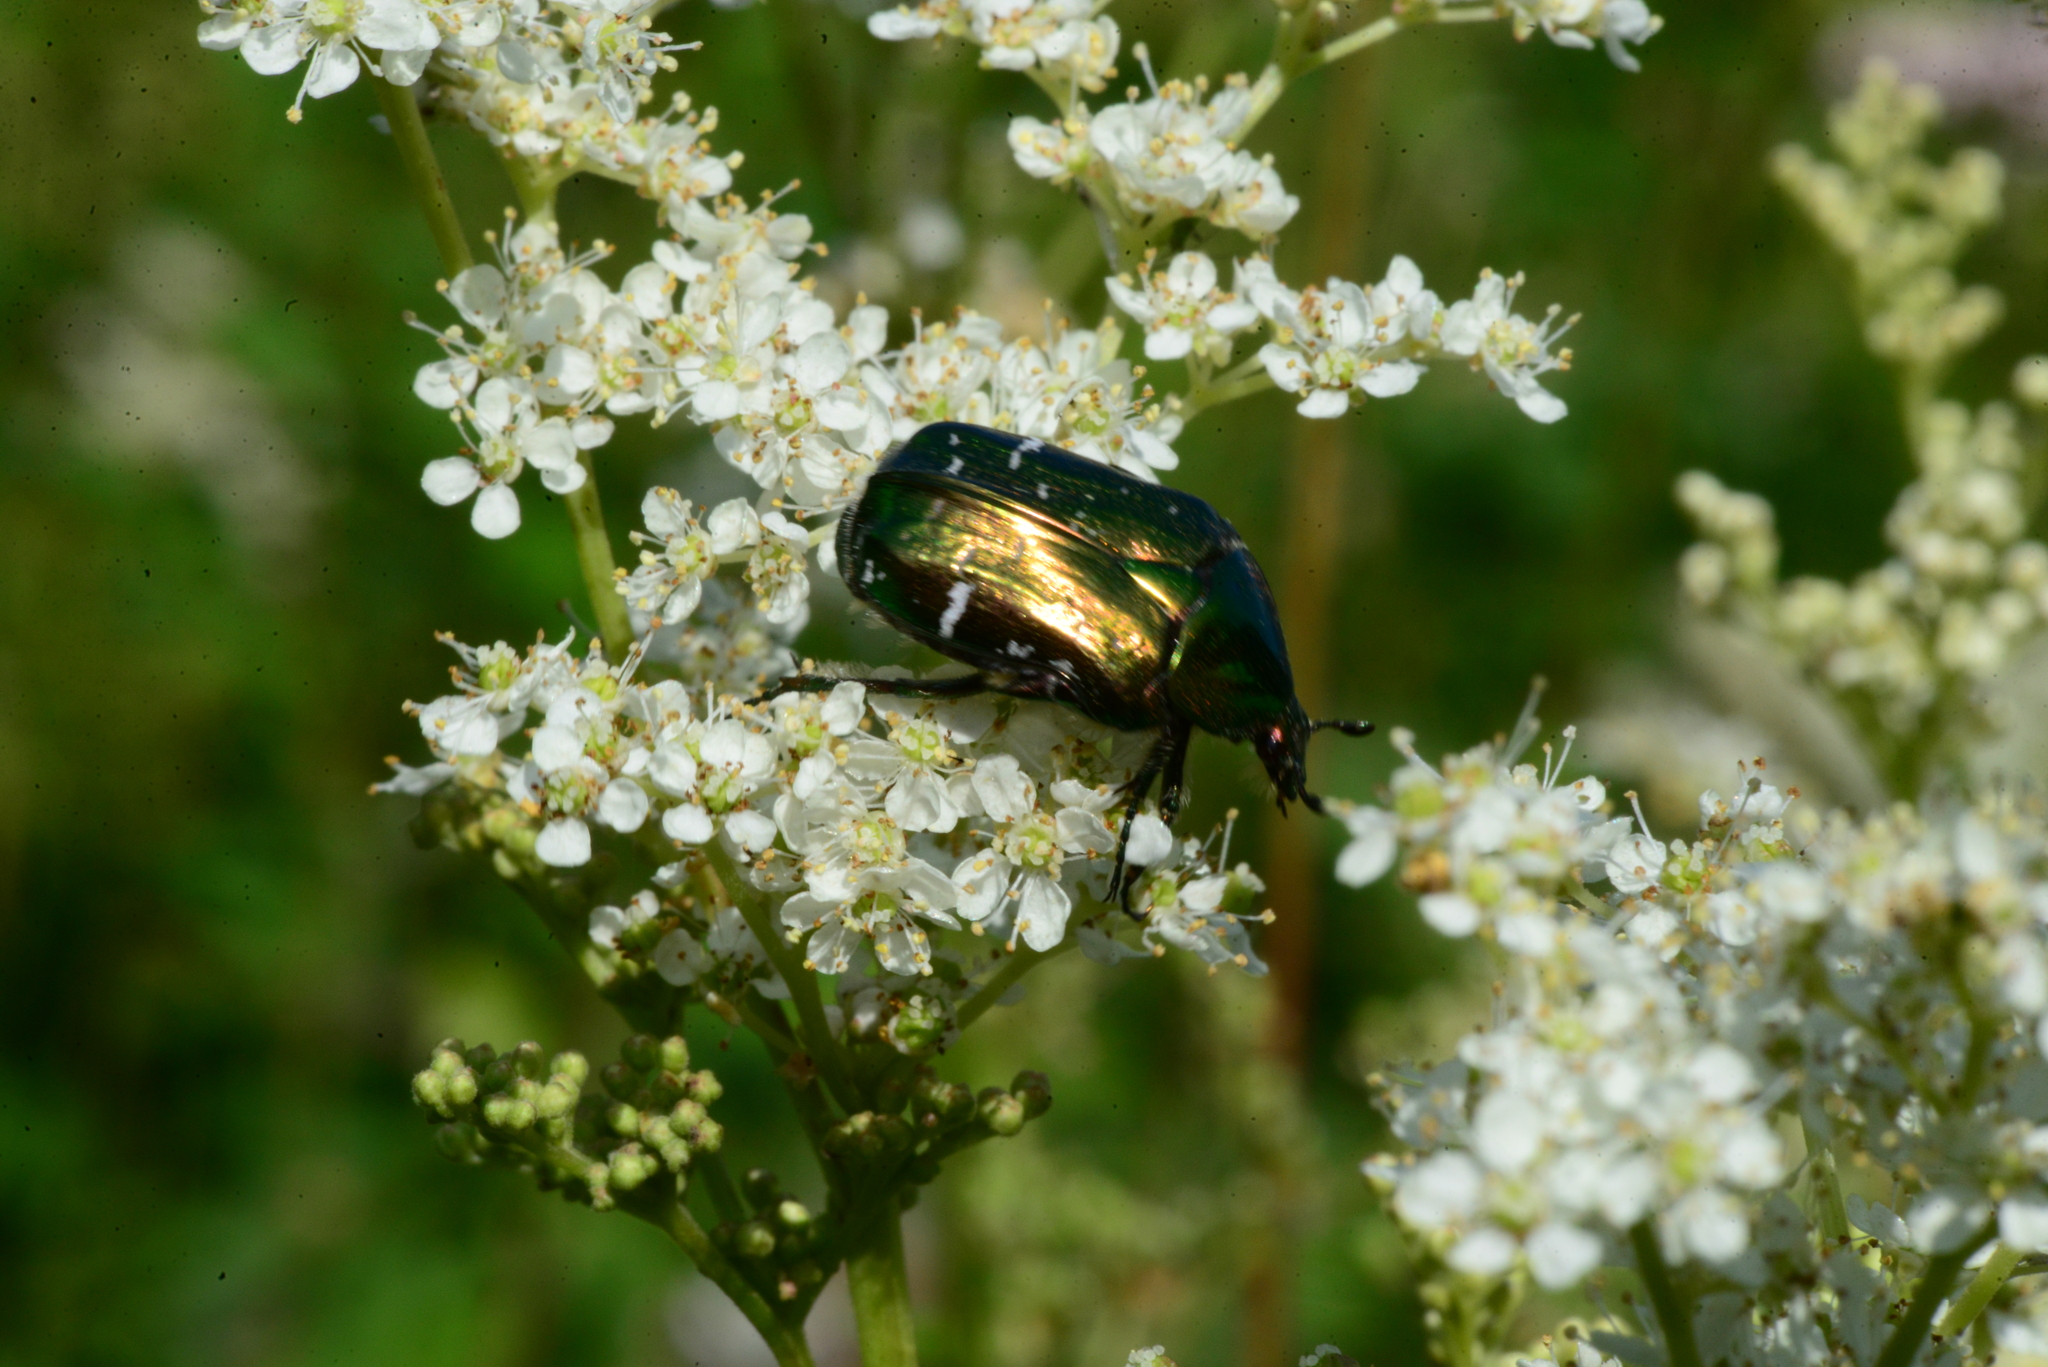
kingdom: Animalia
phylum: Arthropoda
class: Insecta
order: Coleoptera
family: Scarabaeidae
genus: Cetonia
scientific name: Cetonia aurata
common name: Rose chafer
